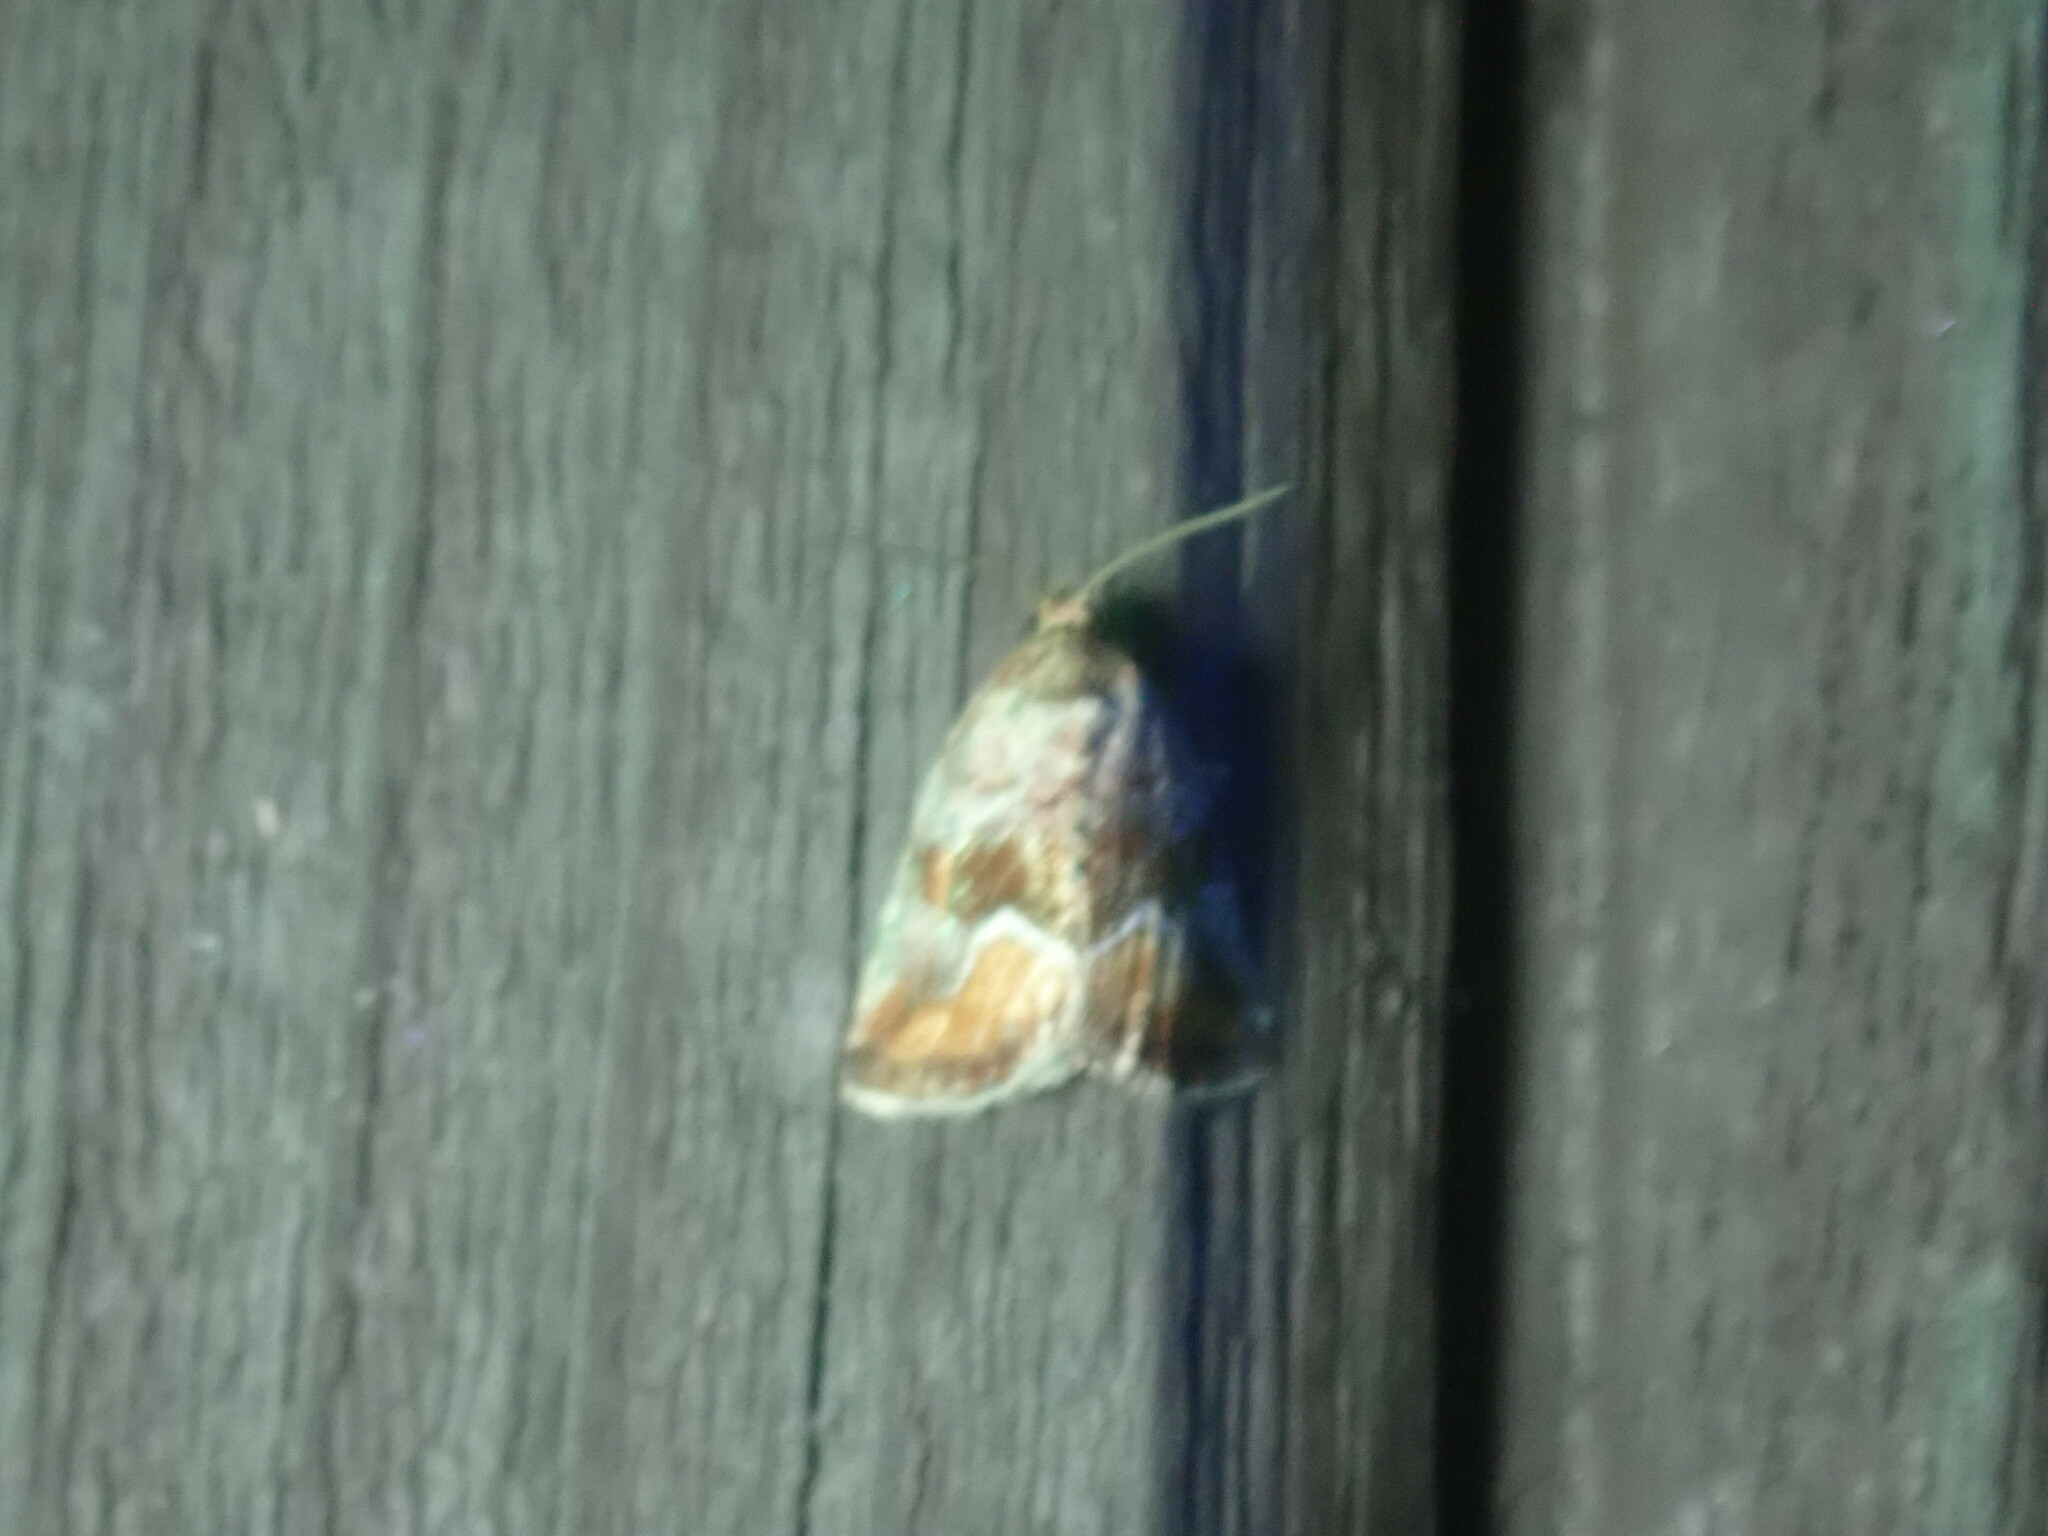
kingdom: Animalia
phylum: Arthropoda
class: Insecta
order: Lepidoptera
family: Noctuidae
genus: Deltote
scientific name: Deltote bellicula
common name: Bog glyph
